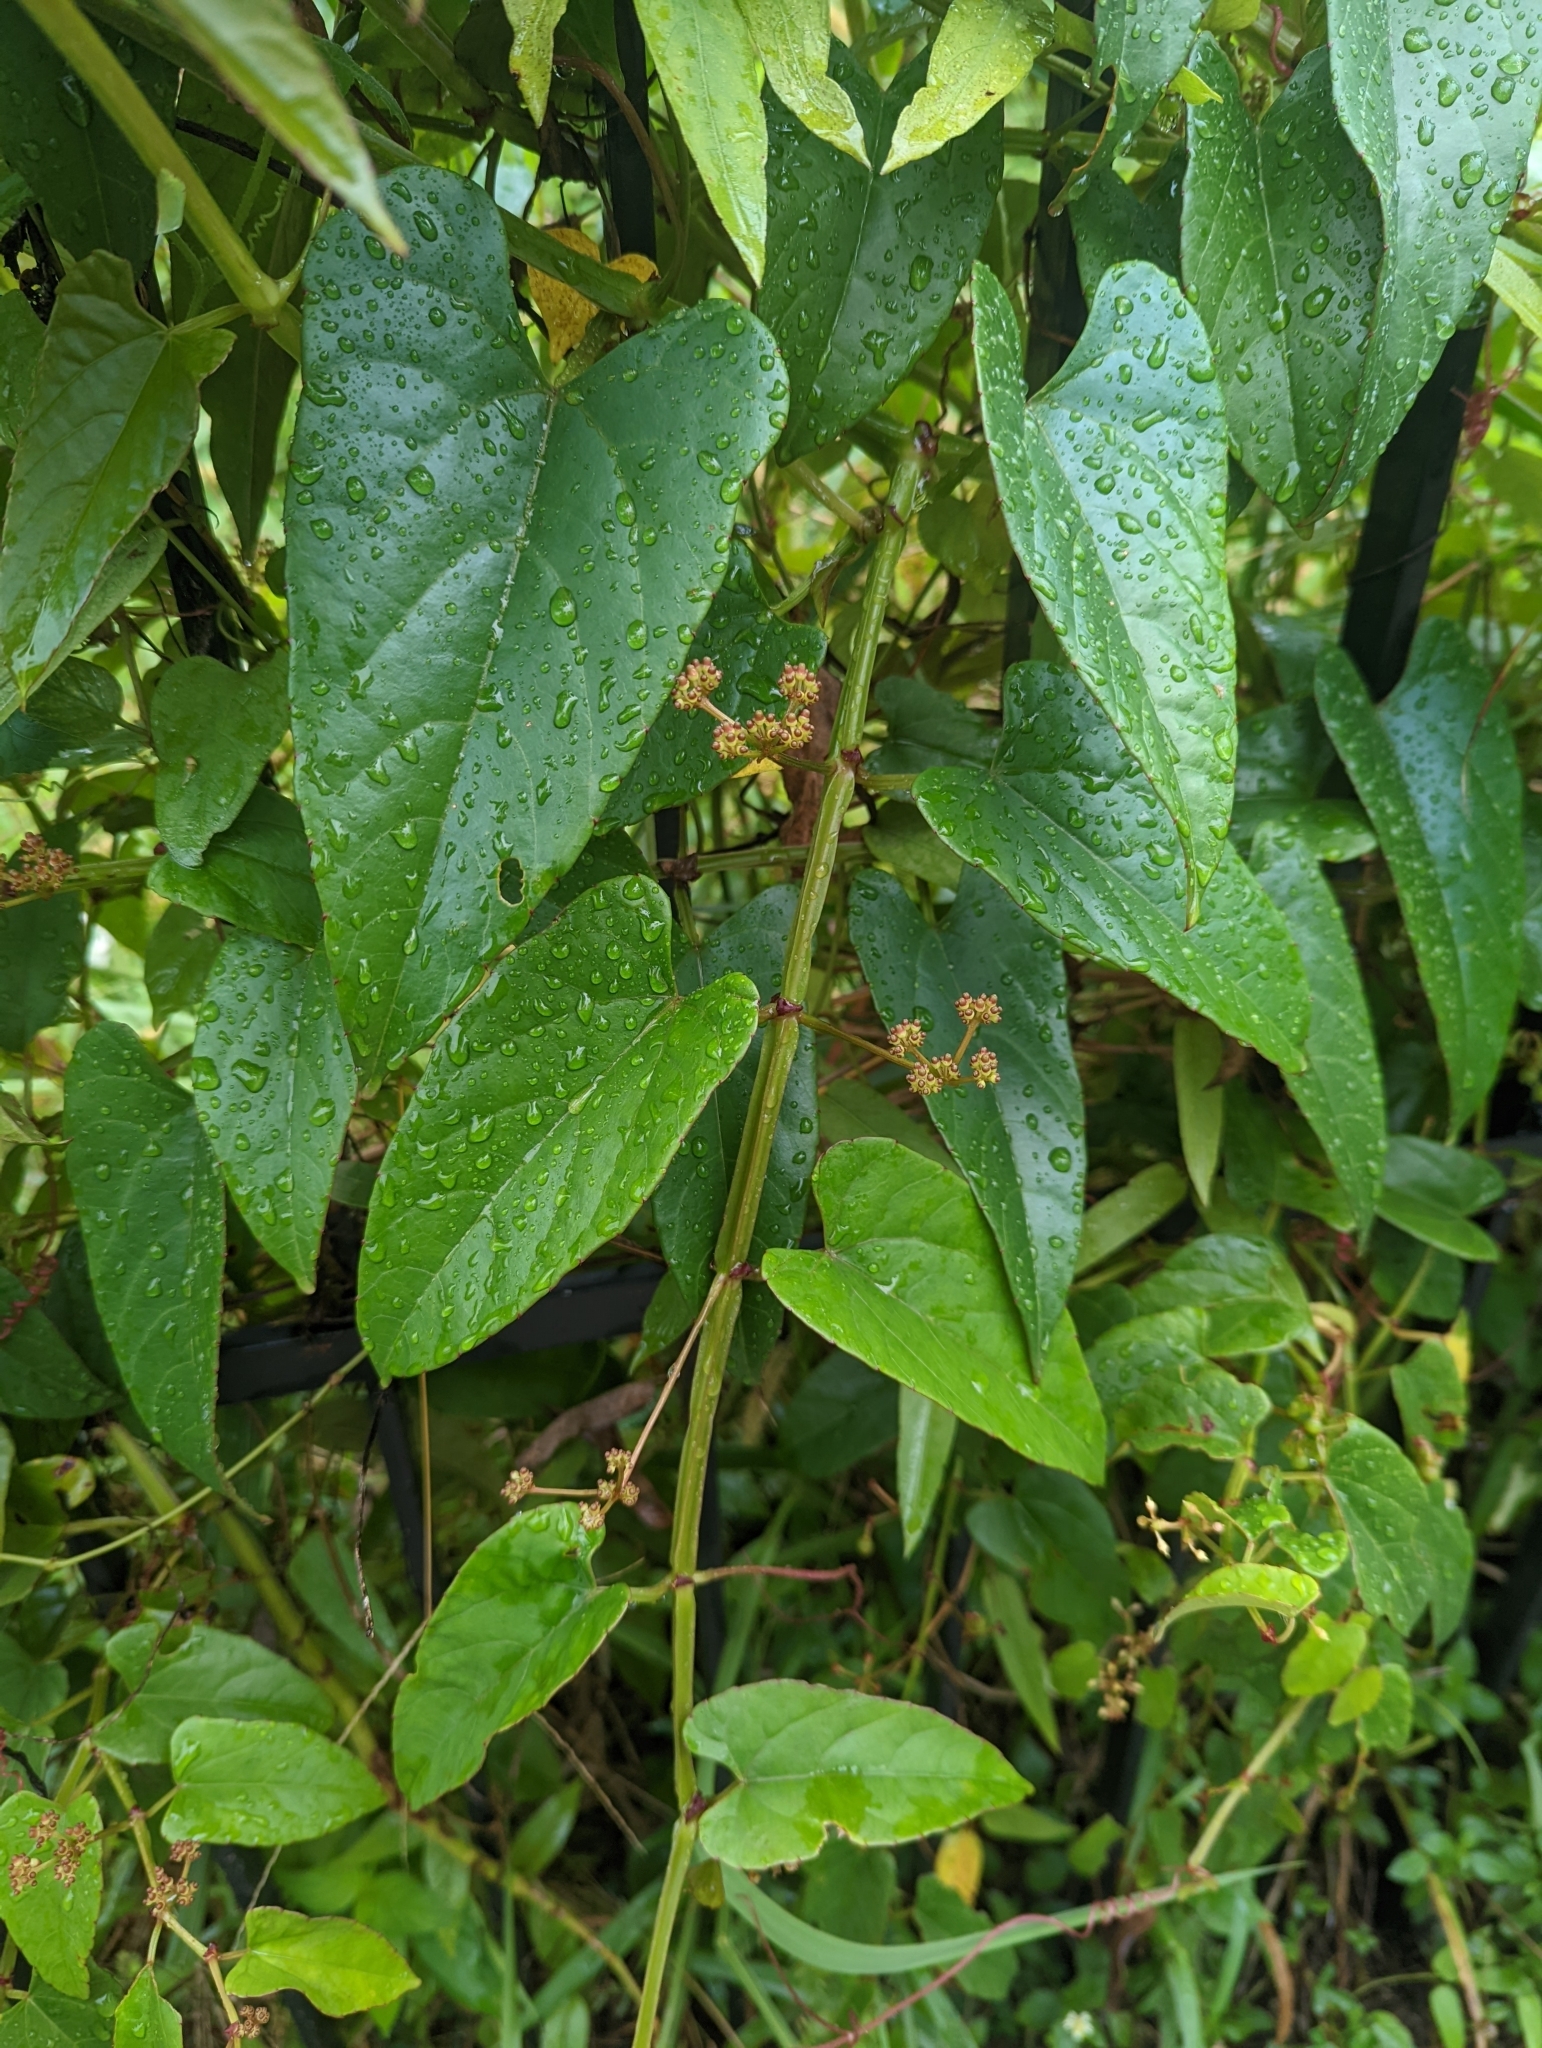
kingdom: Plantae
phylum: Tracheophyta
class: Magnoliopsida
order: Vitales
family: Vitaceae
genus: Cissus
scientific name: Cissus hastata
